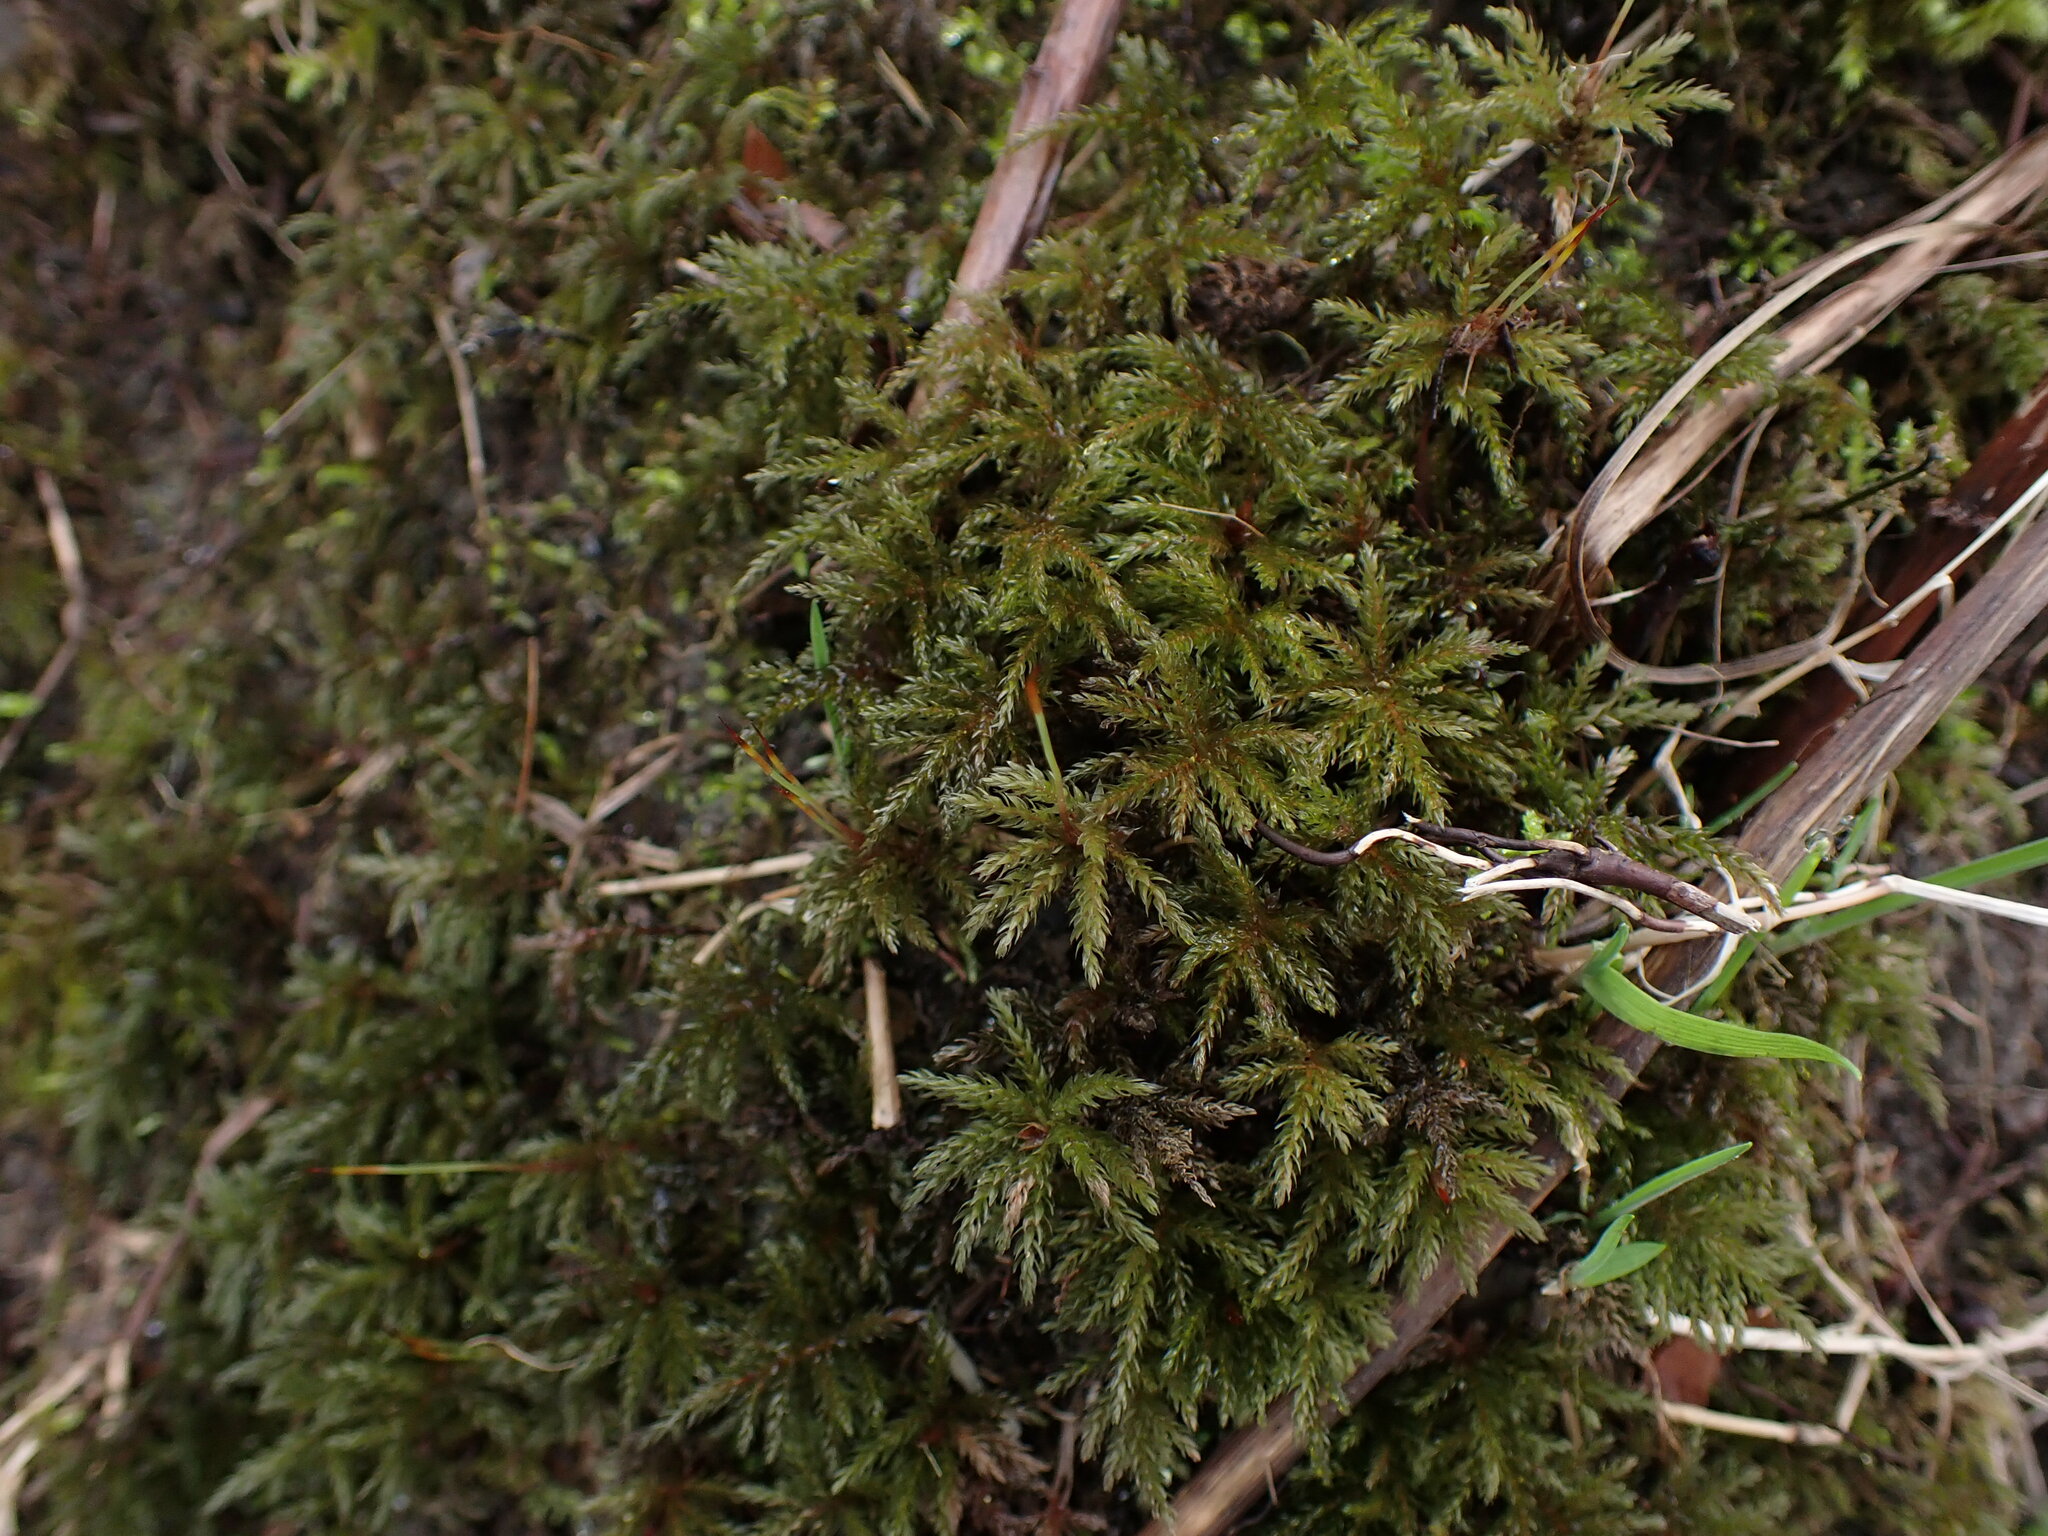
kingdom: Plantae
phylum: Bryophyta
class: Bryopsida
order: Bryales
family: Mniaceae
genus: Leucolepis
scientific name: Leucolepis acanthoneura
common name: Leucolepis umbrella moss
